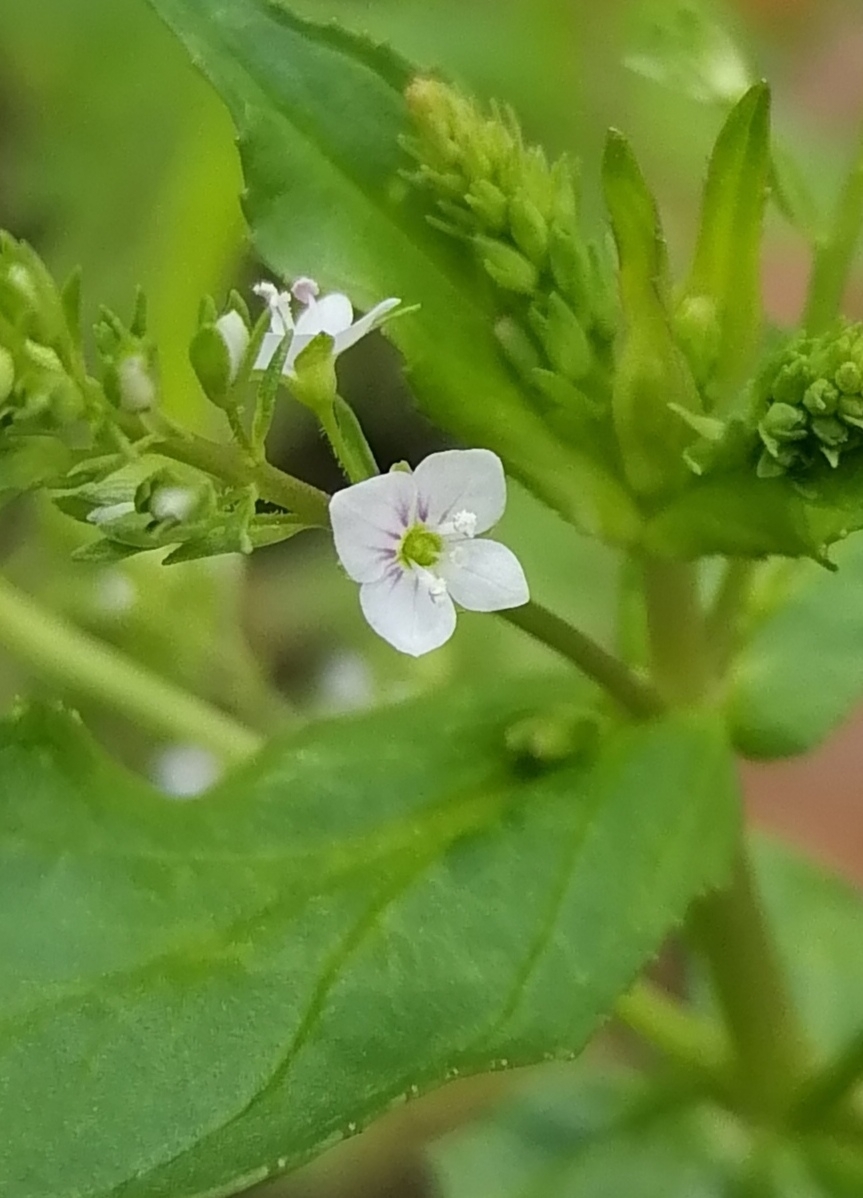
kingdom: Plantae
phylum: Tracheophyta
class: Magnoliopsida
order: Lamiales
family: Plantaginaceae
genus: Veronica
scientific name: Veronica anagallis-aquatica
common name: Water speedwell
